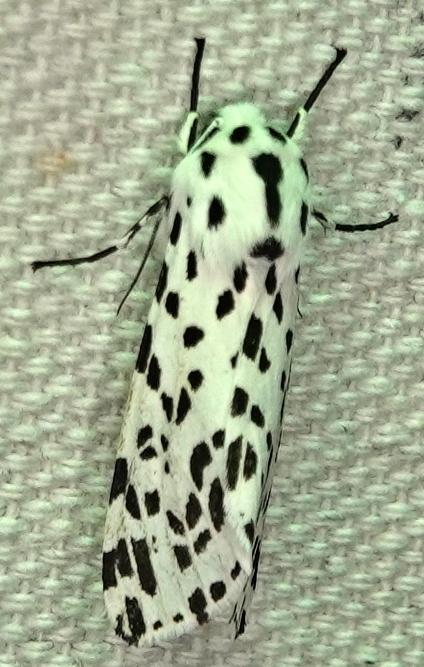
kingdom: Animalia
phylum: Arthropoda
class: Insecta
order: Lepidoptera
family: Erebidae
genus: Hypercompe
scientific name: Hypercompe permaculata
